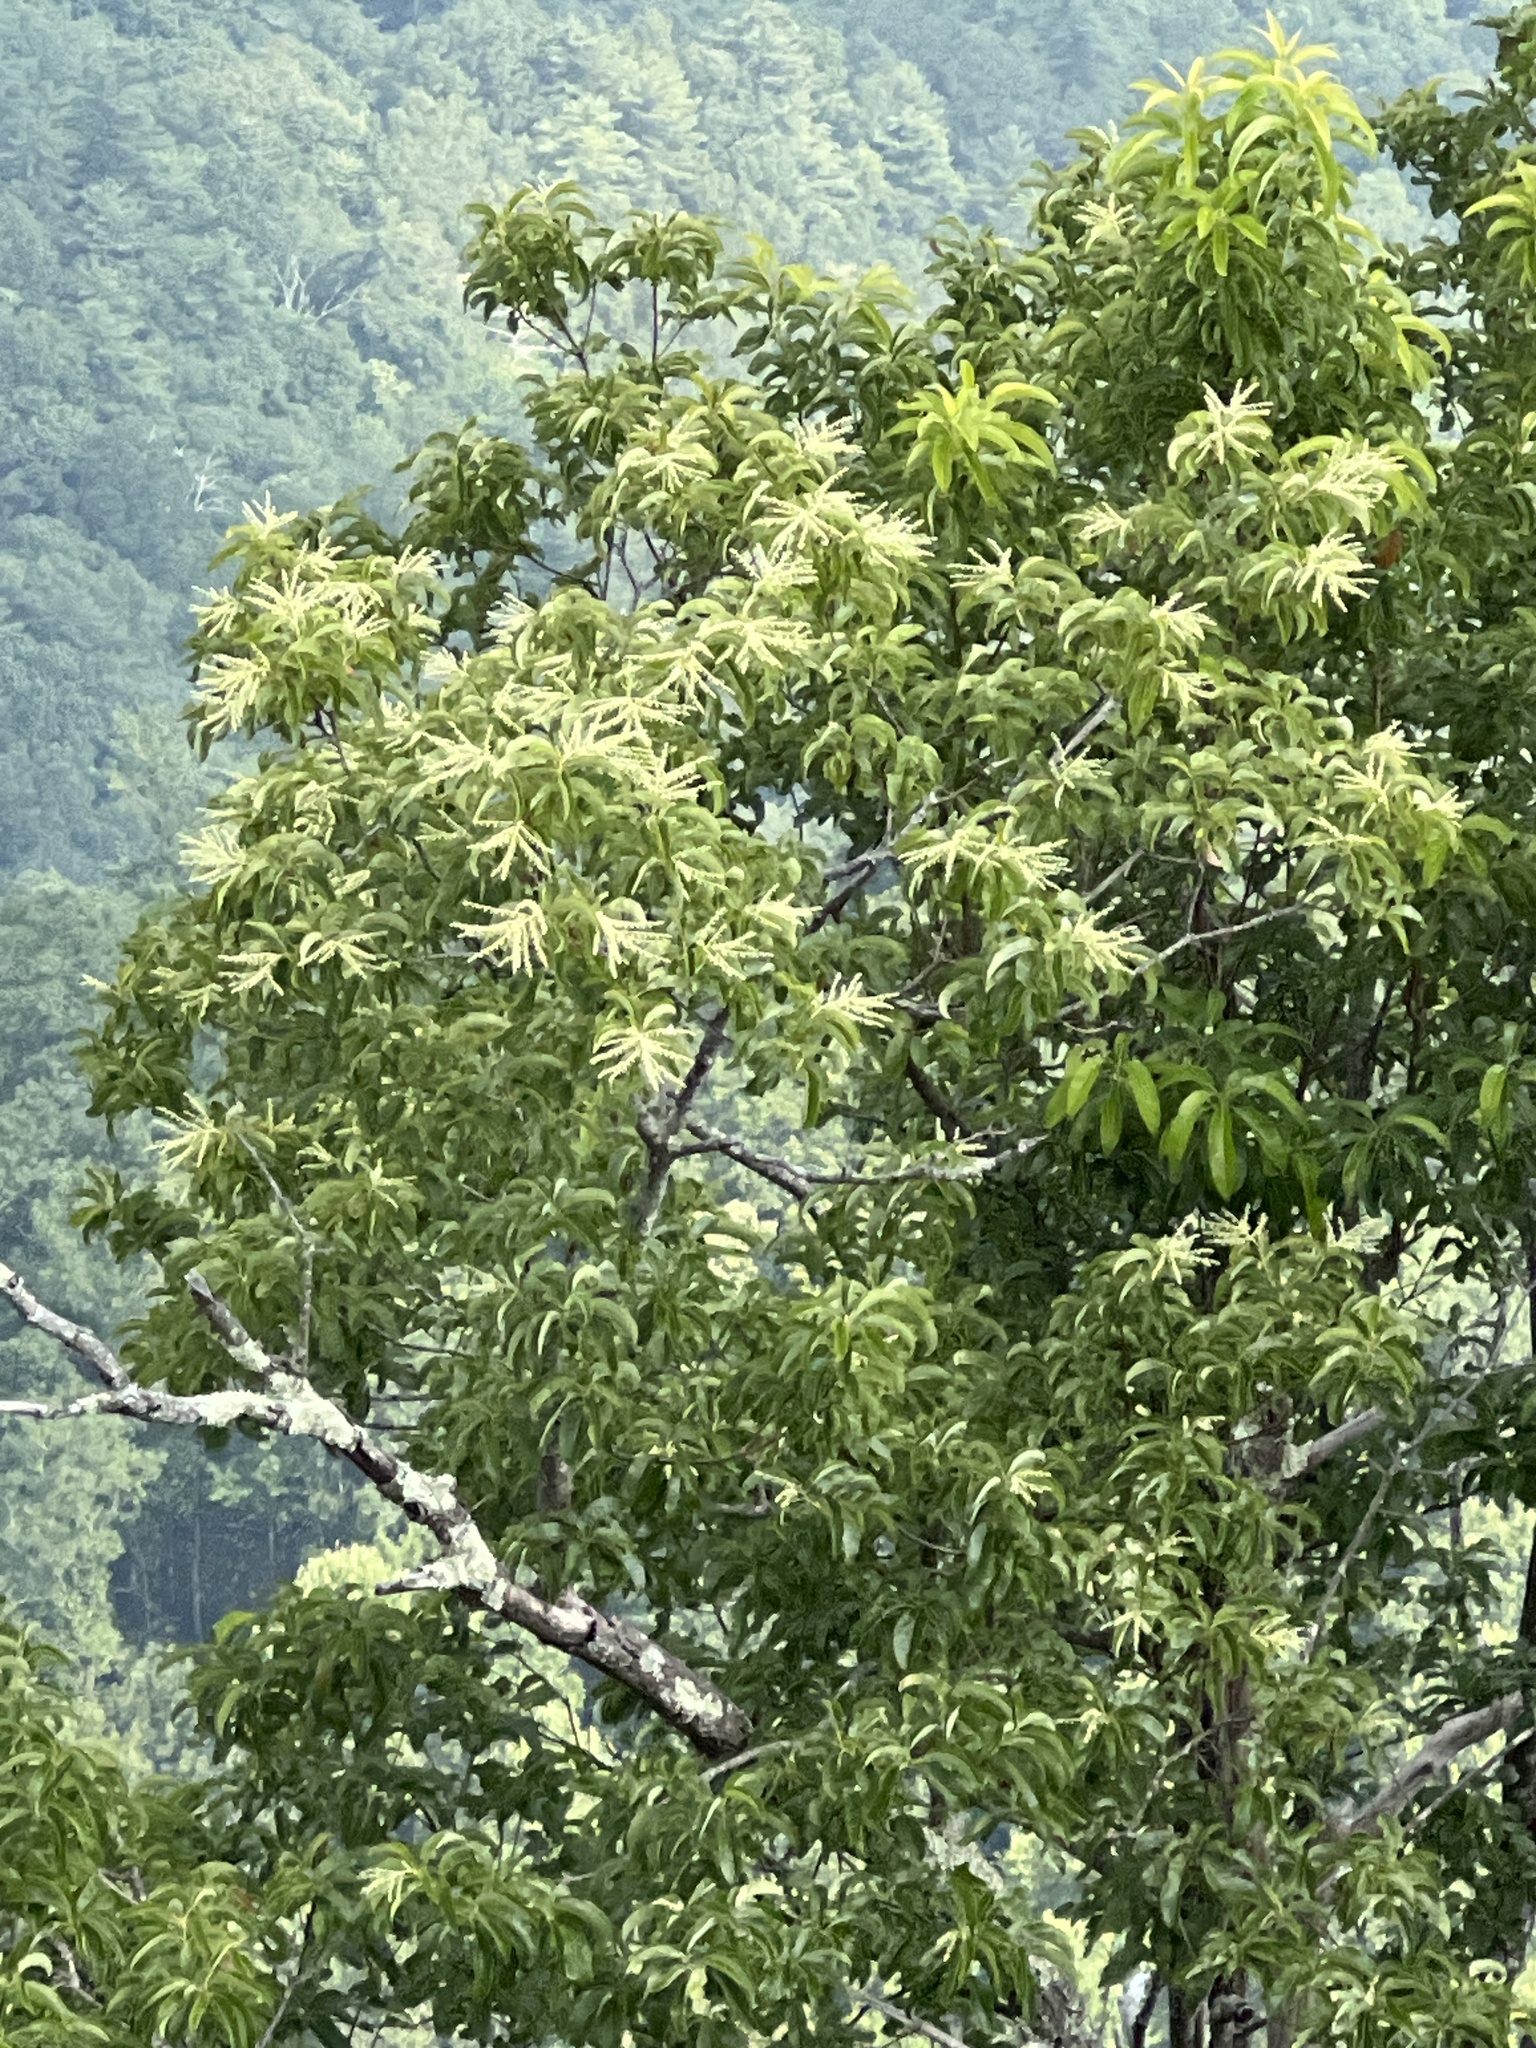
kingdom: Plantae
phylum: Tracheophyta
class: Magnoliopsida
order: Ericales
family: Ericaceae
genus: Oxydendrum
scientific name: Oxydendrum arboreum
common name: Sourwood
